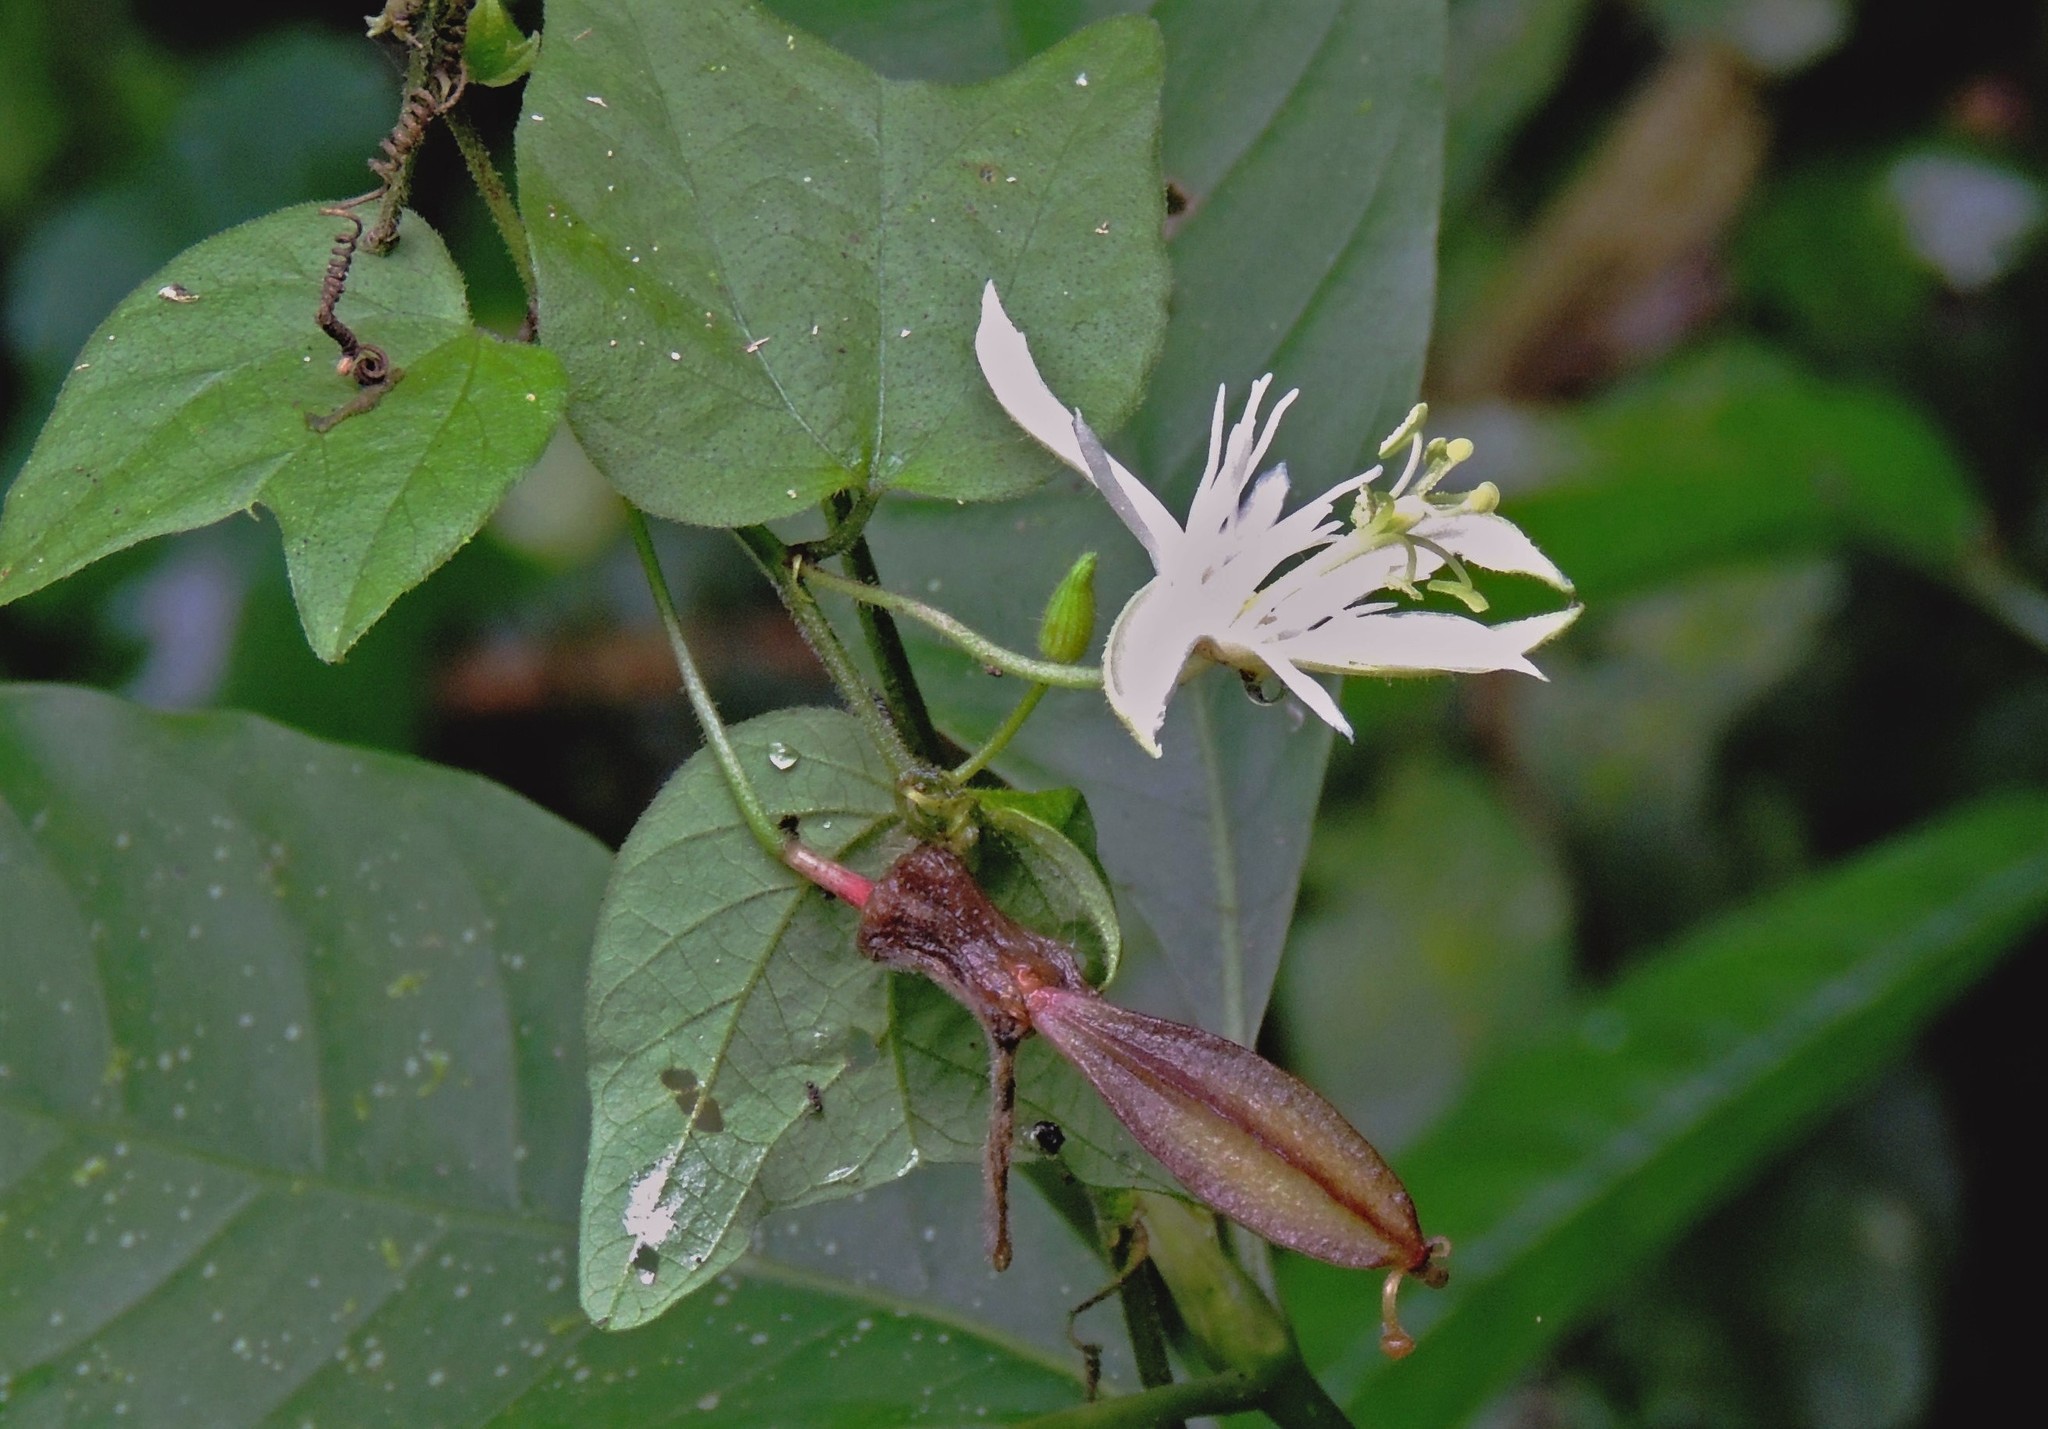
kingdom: Plantae
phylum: Tracheophyta
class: Magnoliopsida
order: Malpighiales
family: Passifloraceae
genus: Passiflora
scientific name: Passiflora capsularis
